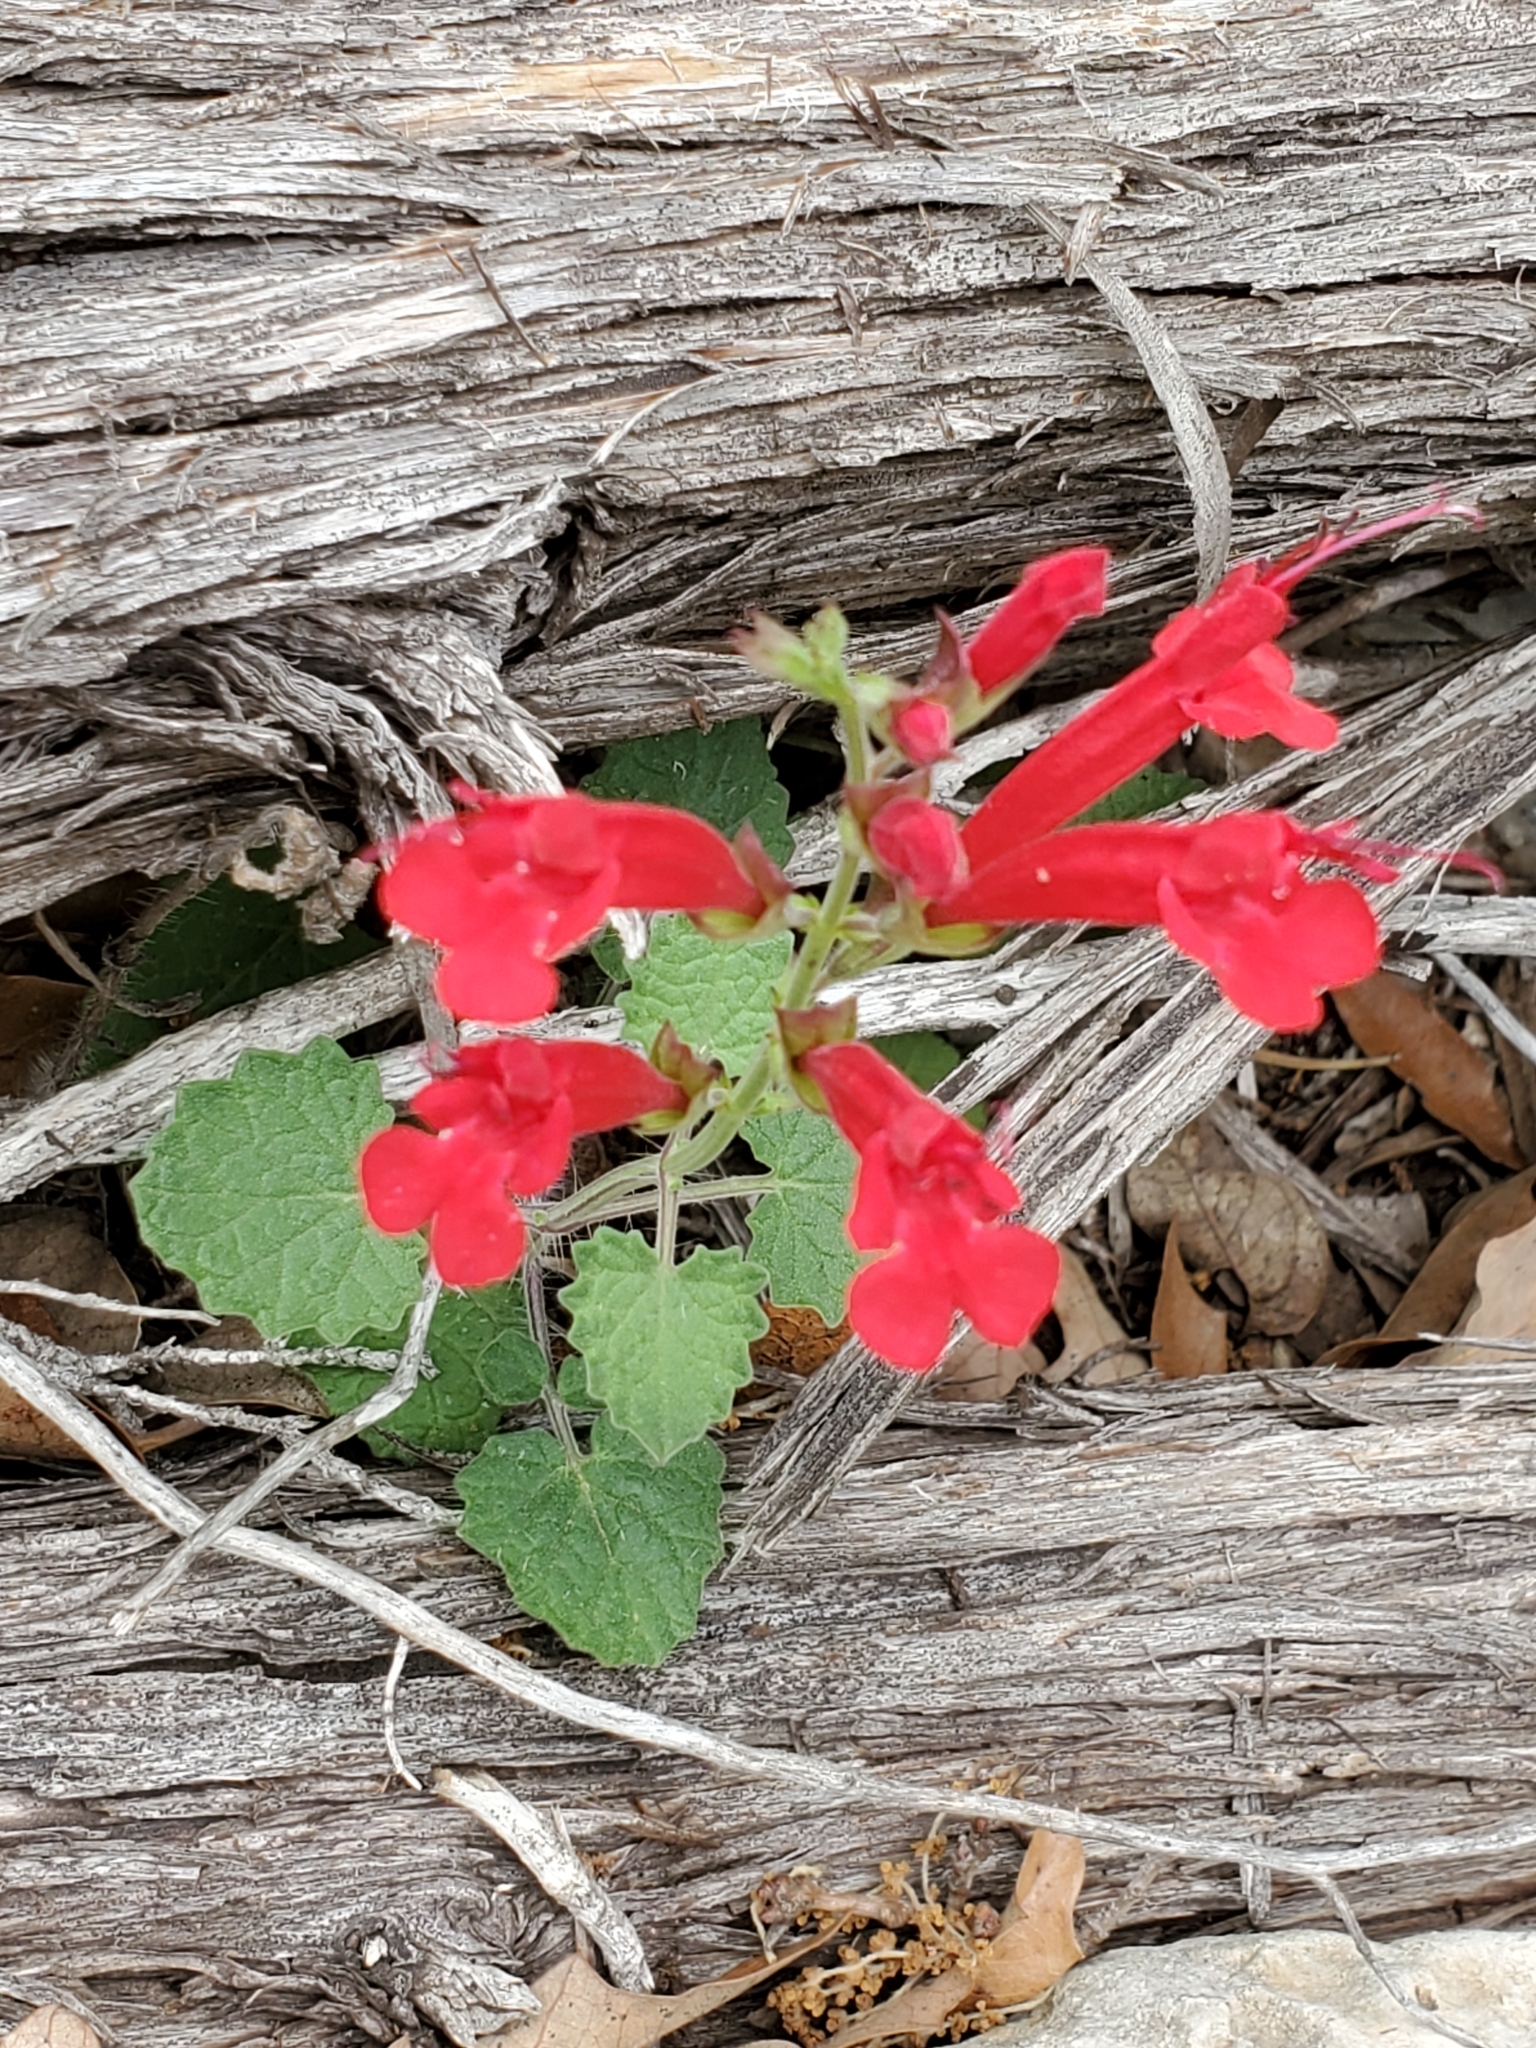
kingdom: Plantae
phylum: Tracheophyta
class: Magnoliopsida
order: Lamiales
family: Lamiaceae
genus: Salvia
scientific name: Salvia roemeriana
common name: Cedar sage
